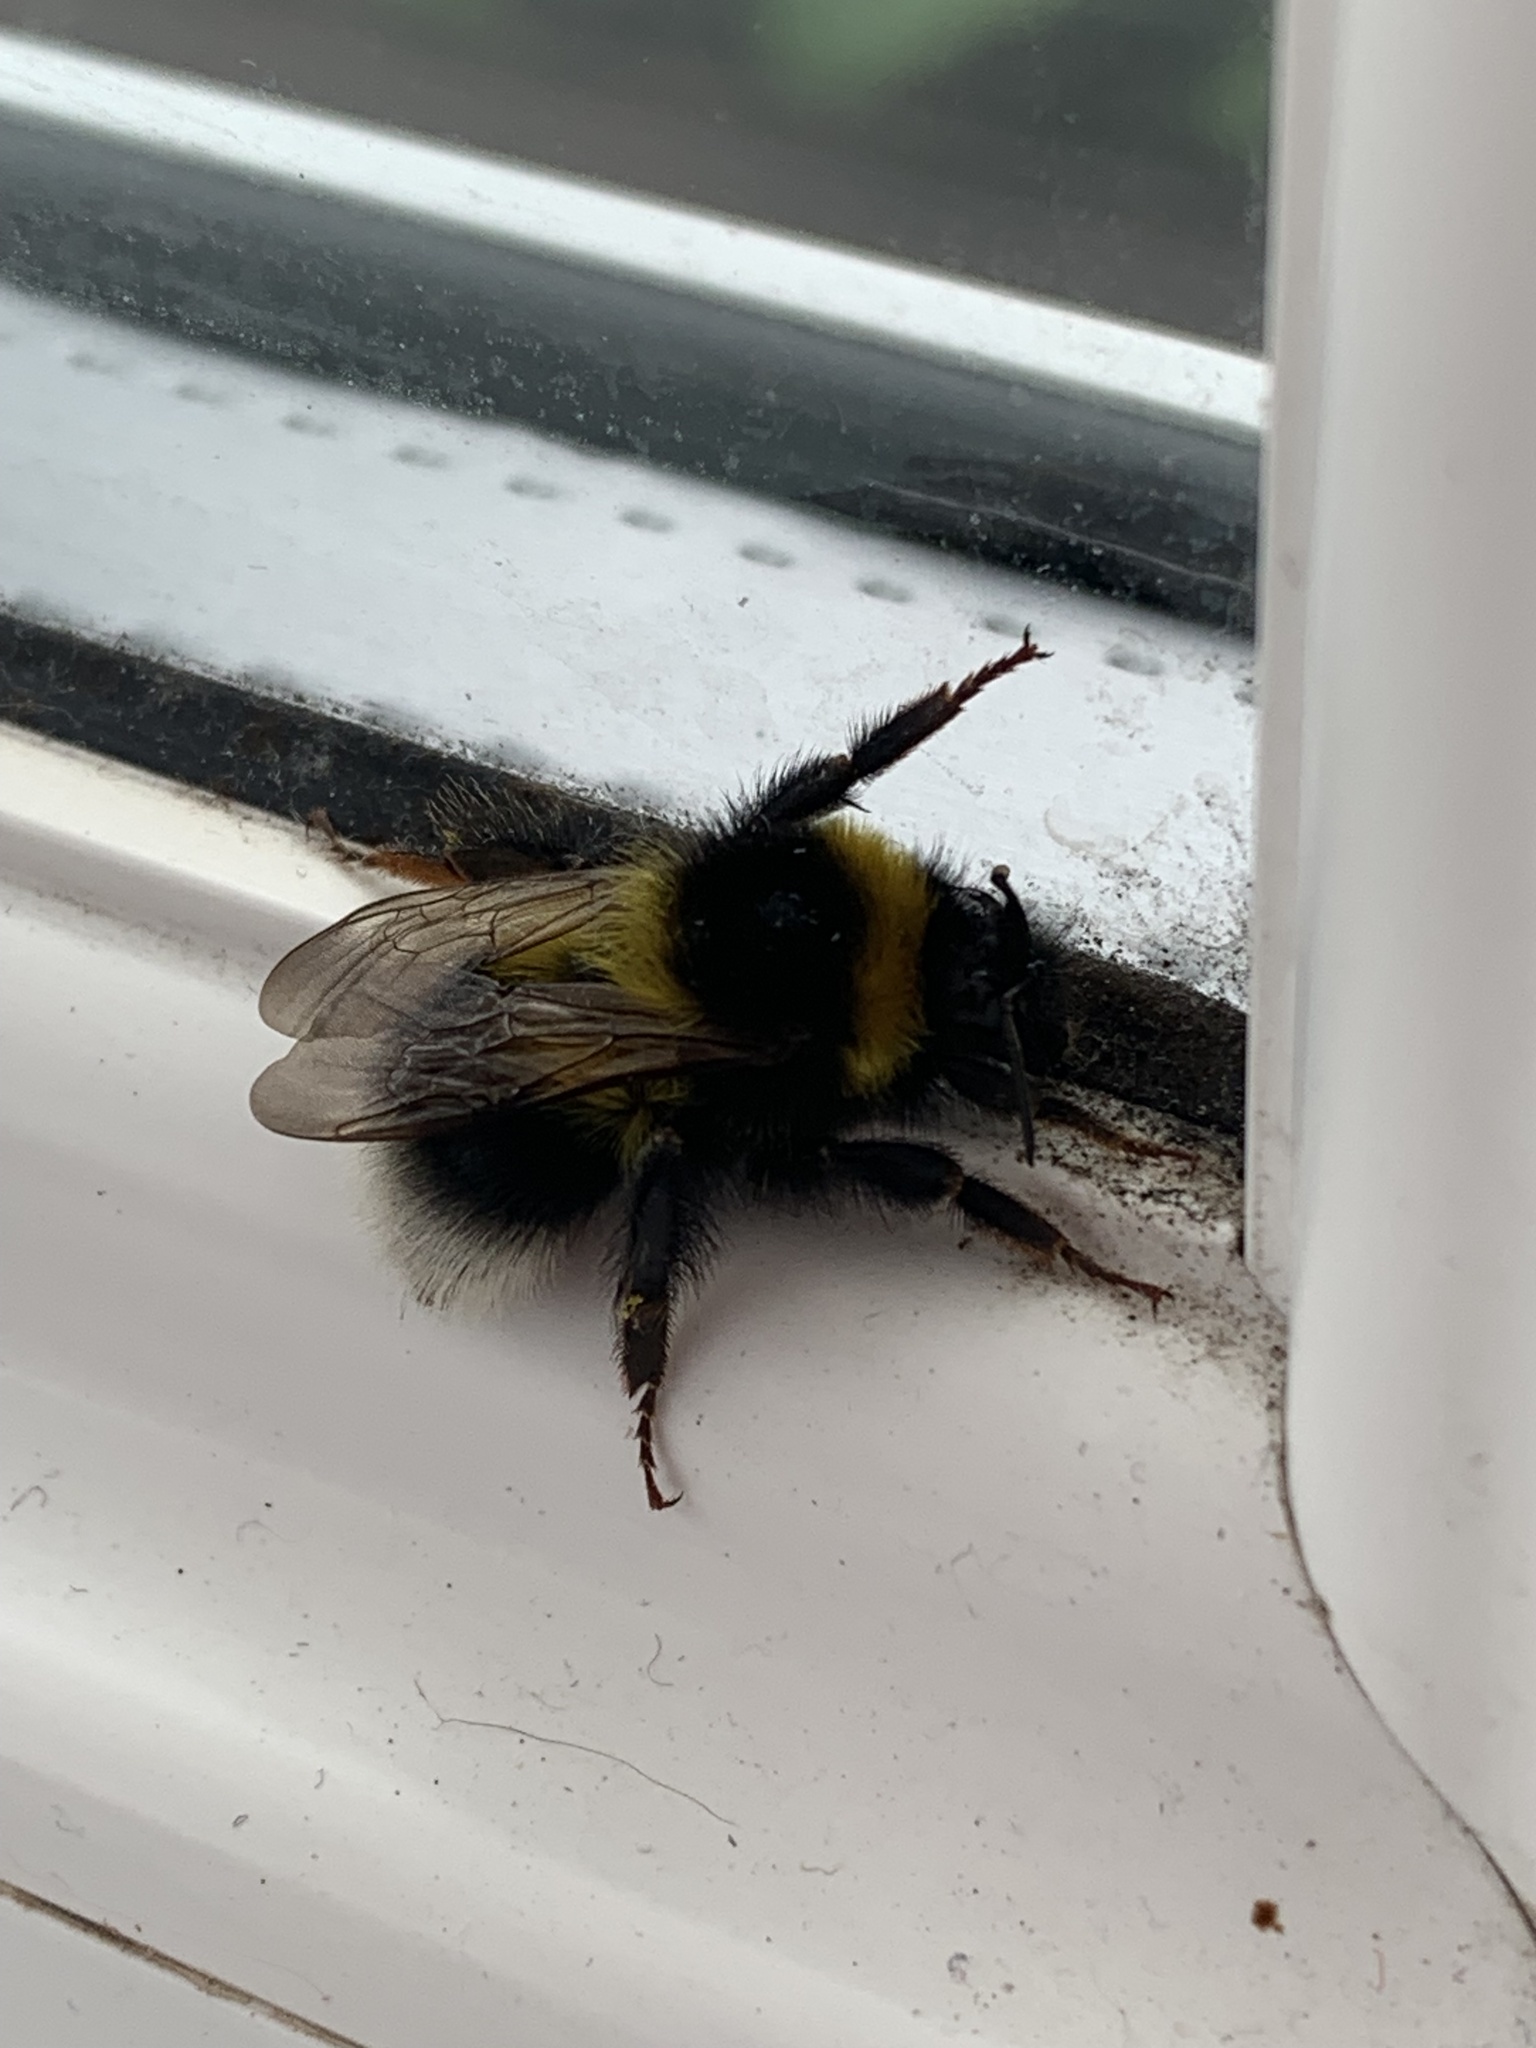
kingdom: Animalia
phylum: Arthropoda
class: Insecta
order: Hymenoptera
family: Apidae
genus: Bombus
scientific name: Bombus hortorum
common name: Garden bumblebee
